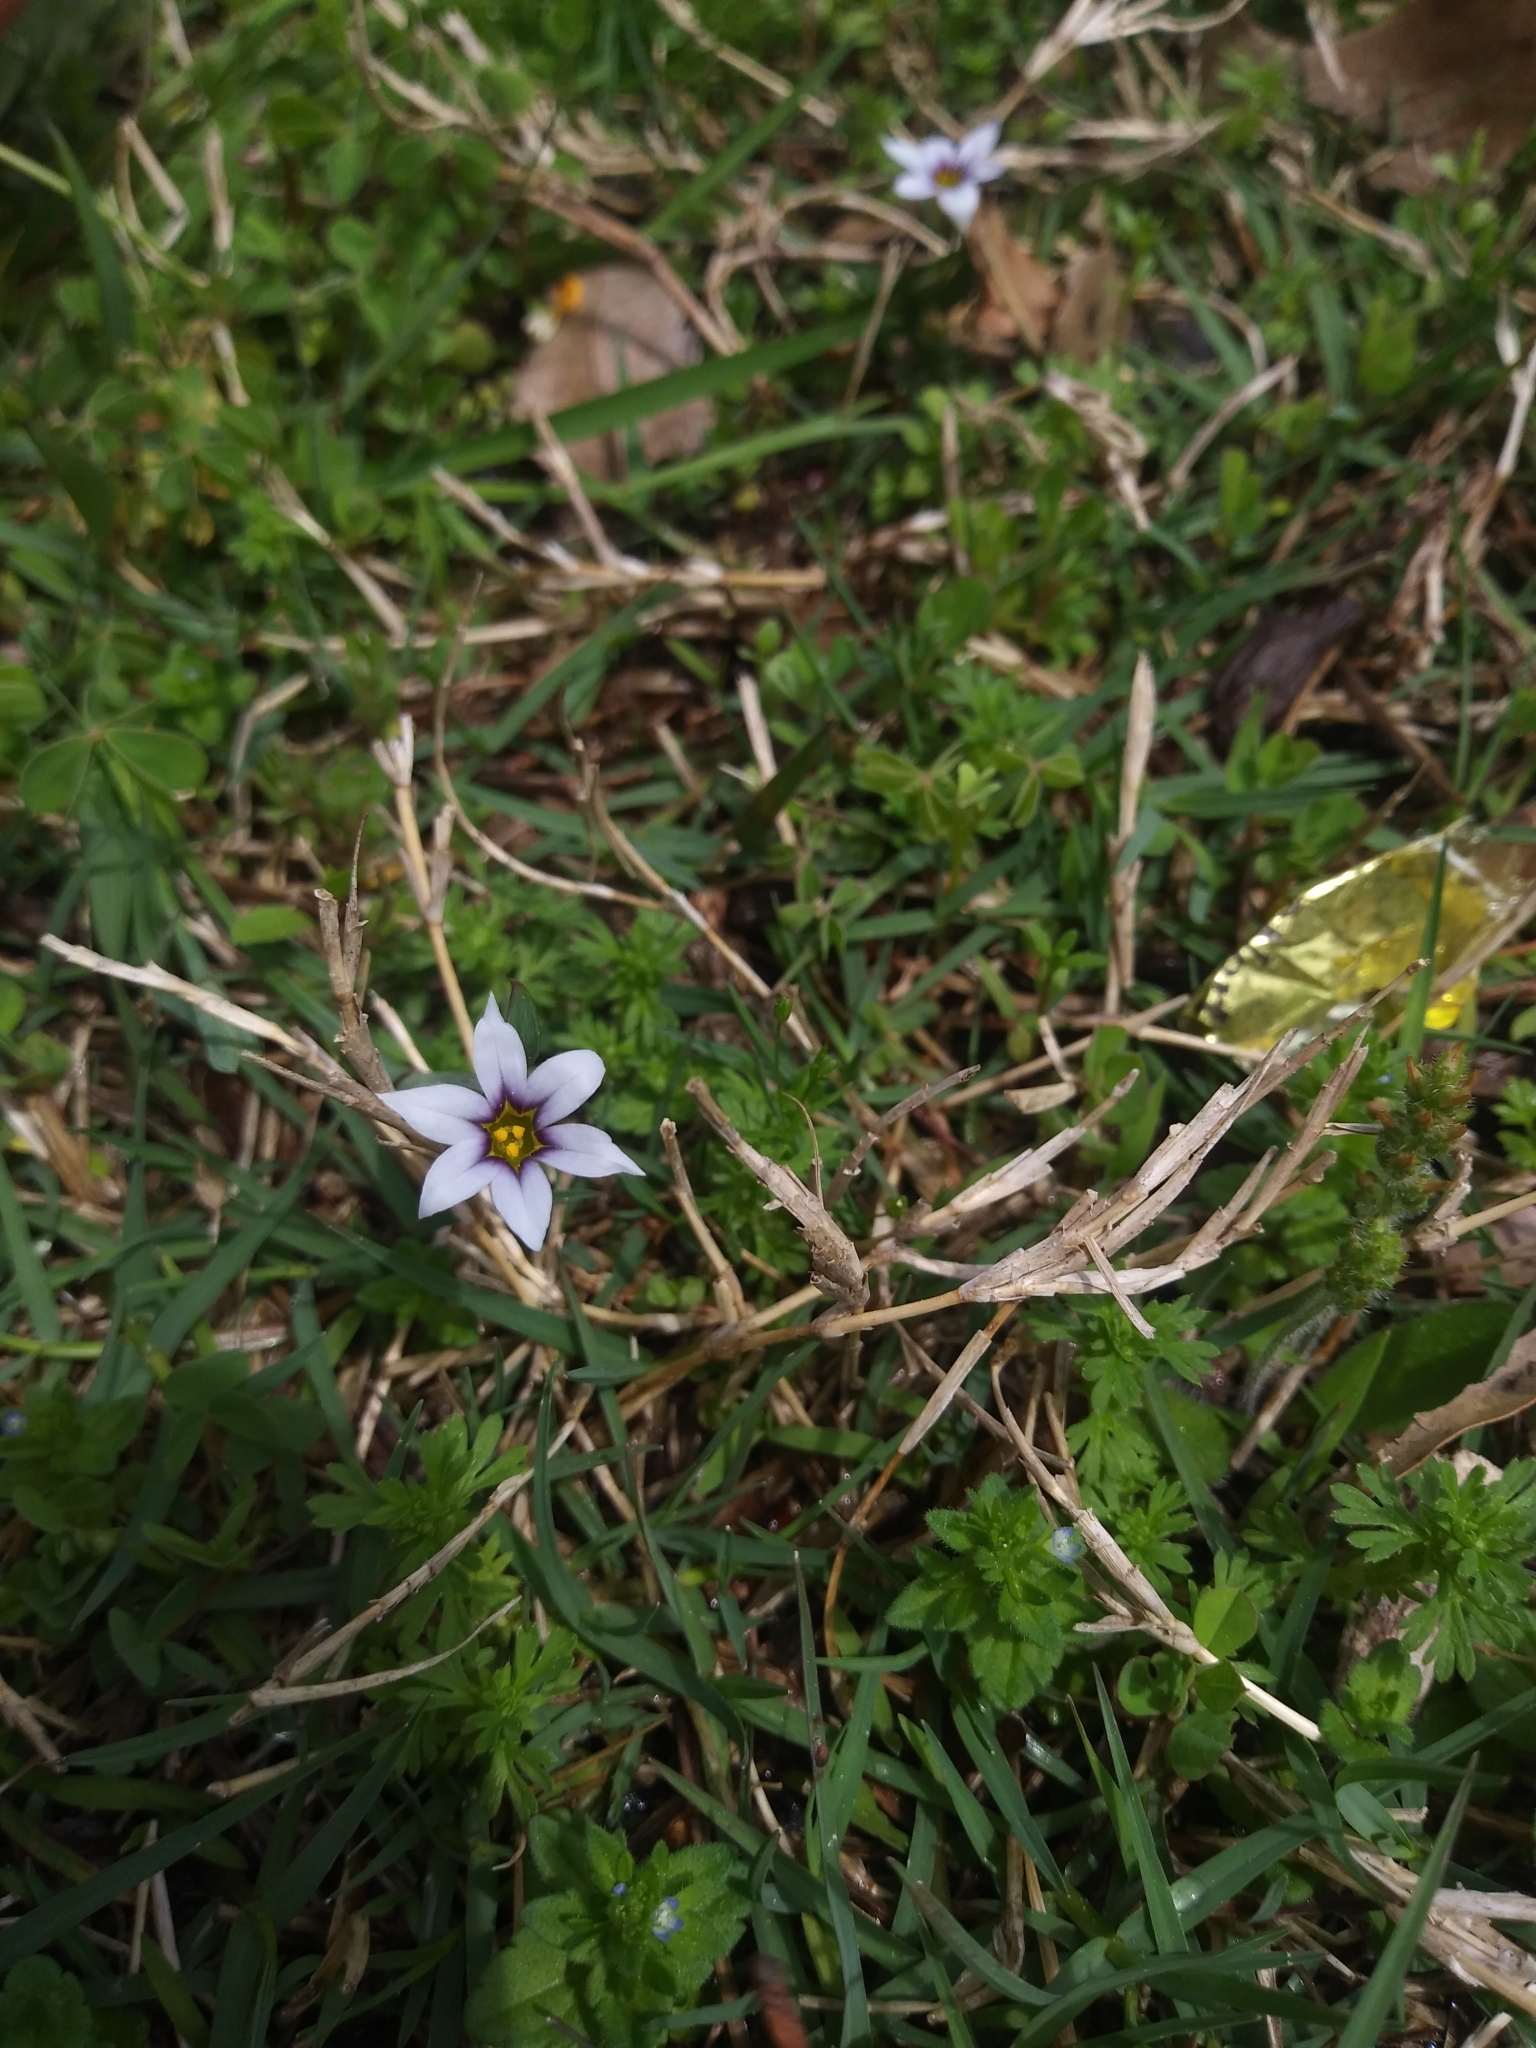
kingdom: Plantae
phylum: Tracheophyta
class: Liliopsida
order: Asparagales
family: Iridaceae
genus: Sisyrinchium
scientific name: Sisyrinchium micranthum
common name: Bermuda pigroot
